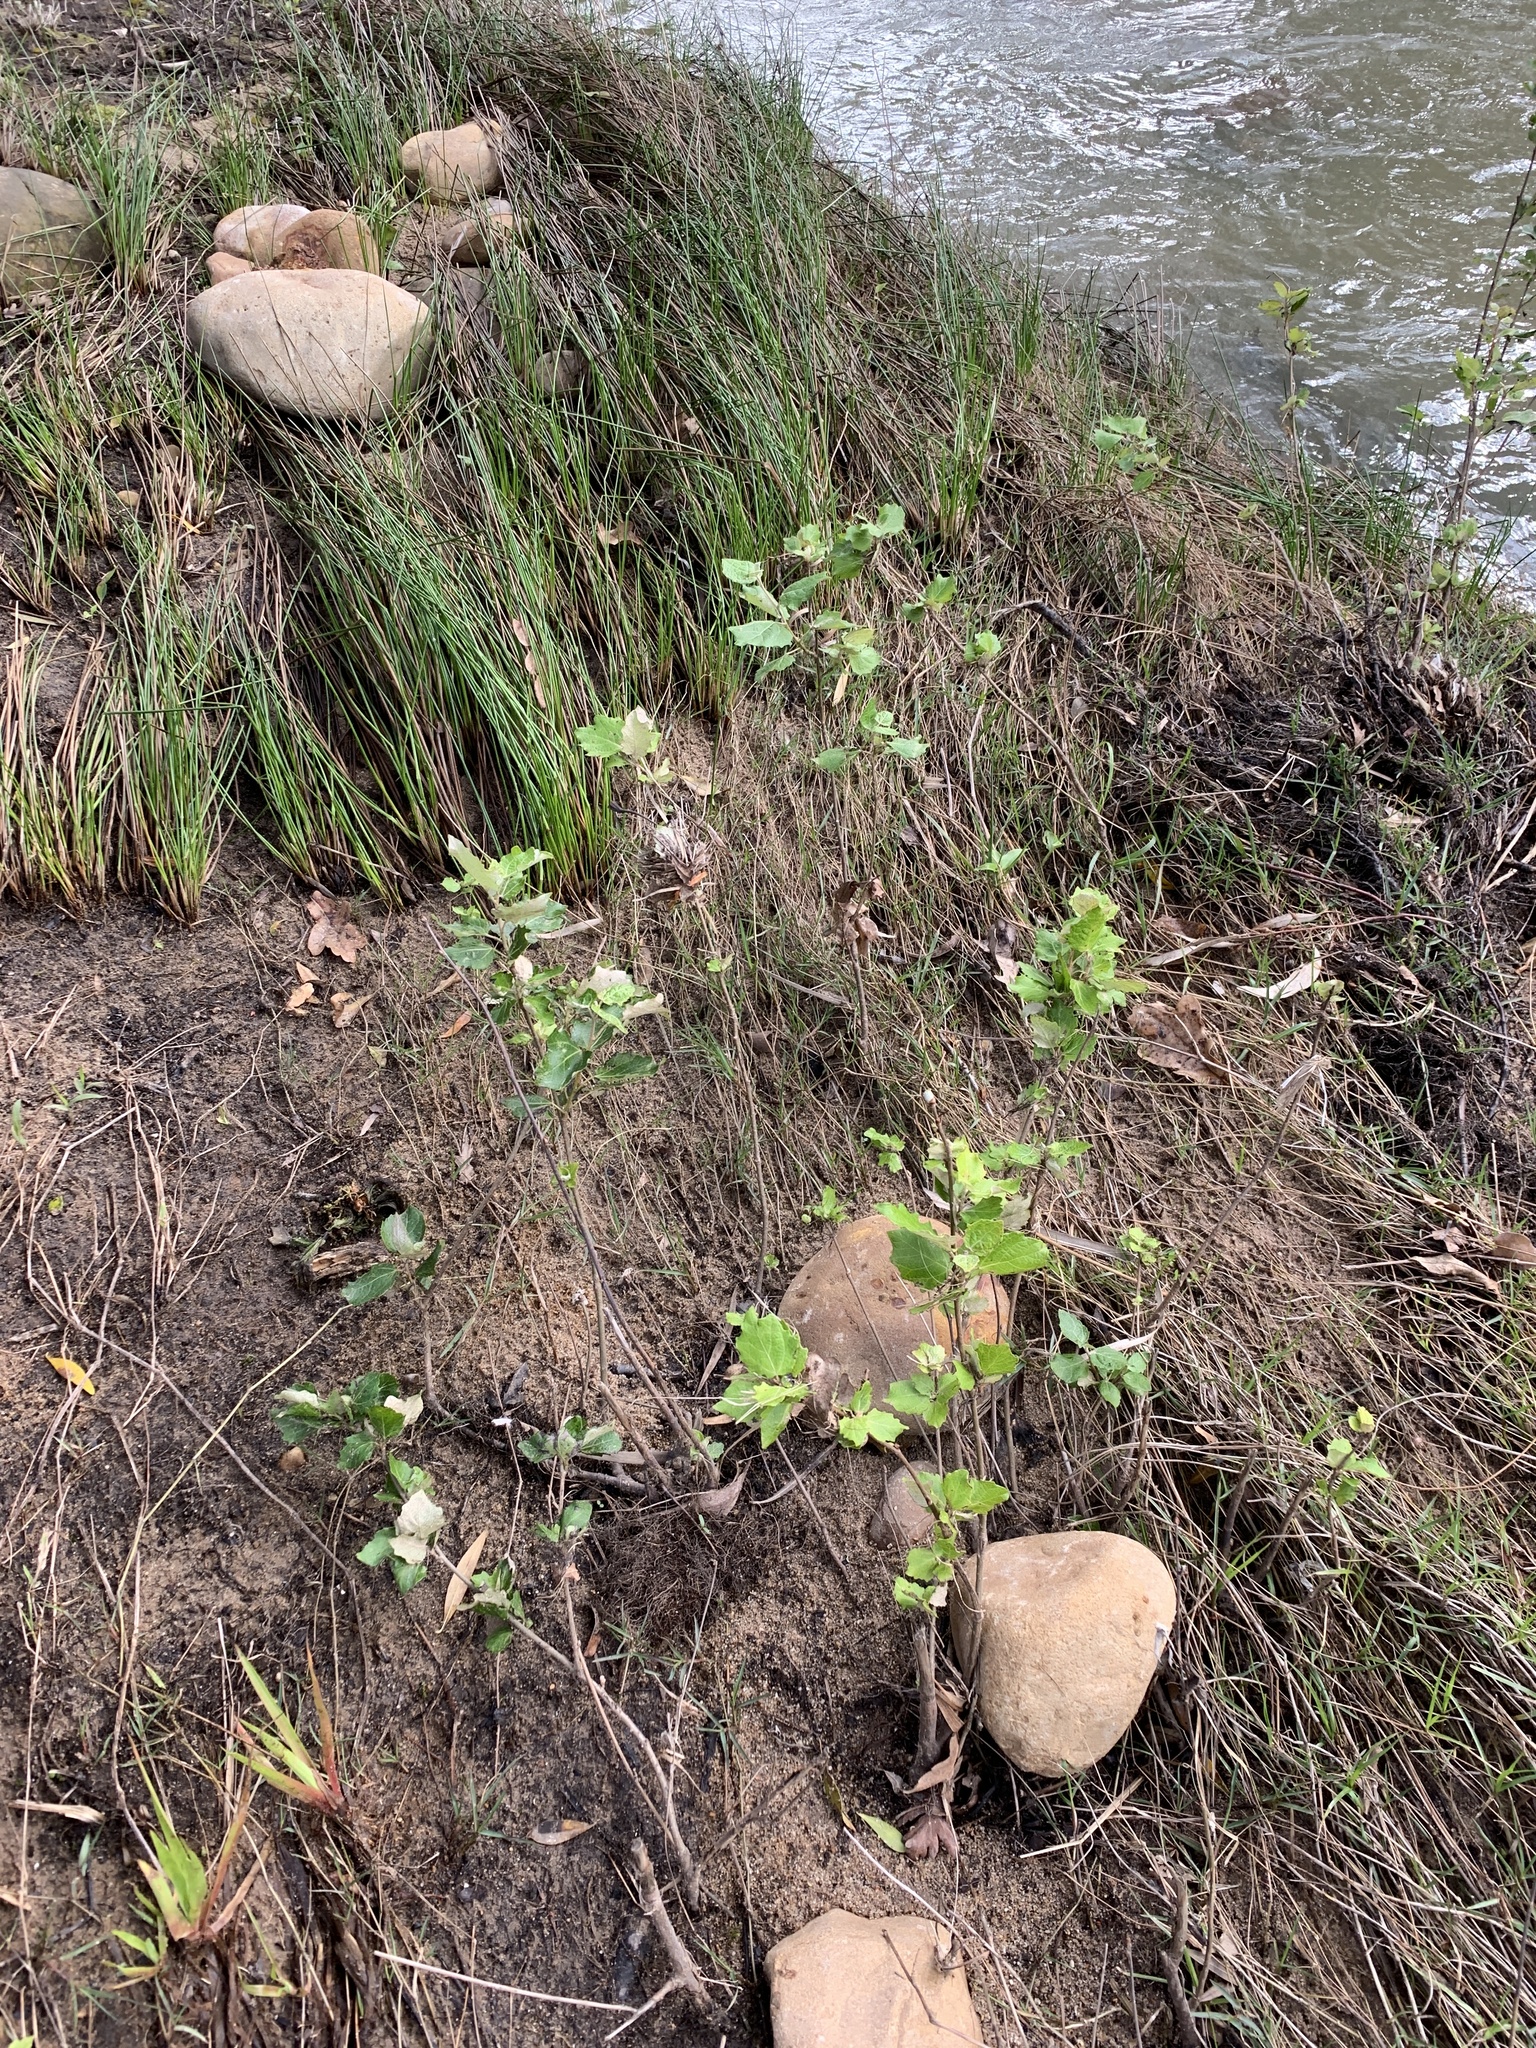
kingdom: Plantae
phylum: Tracheophyta
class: Magnoliopsida
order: Malpighiales
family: Salicaceae
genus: Populus
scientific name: Populus canescens
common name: Gray poplar
